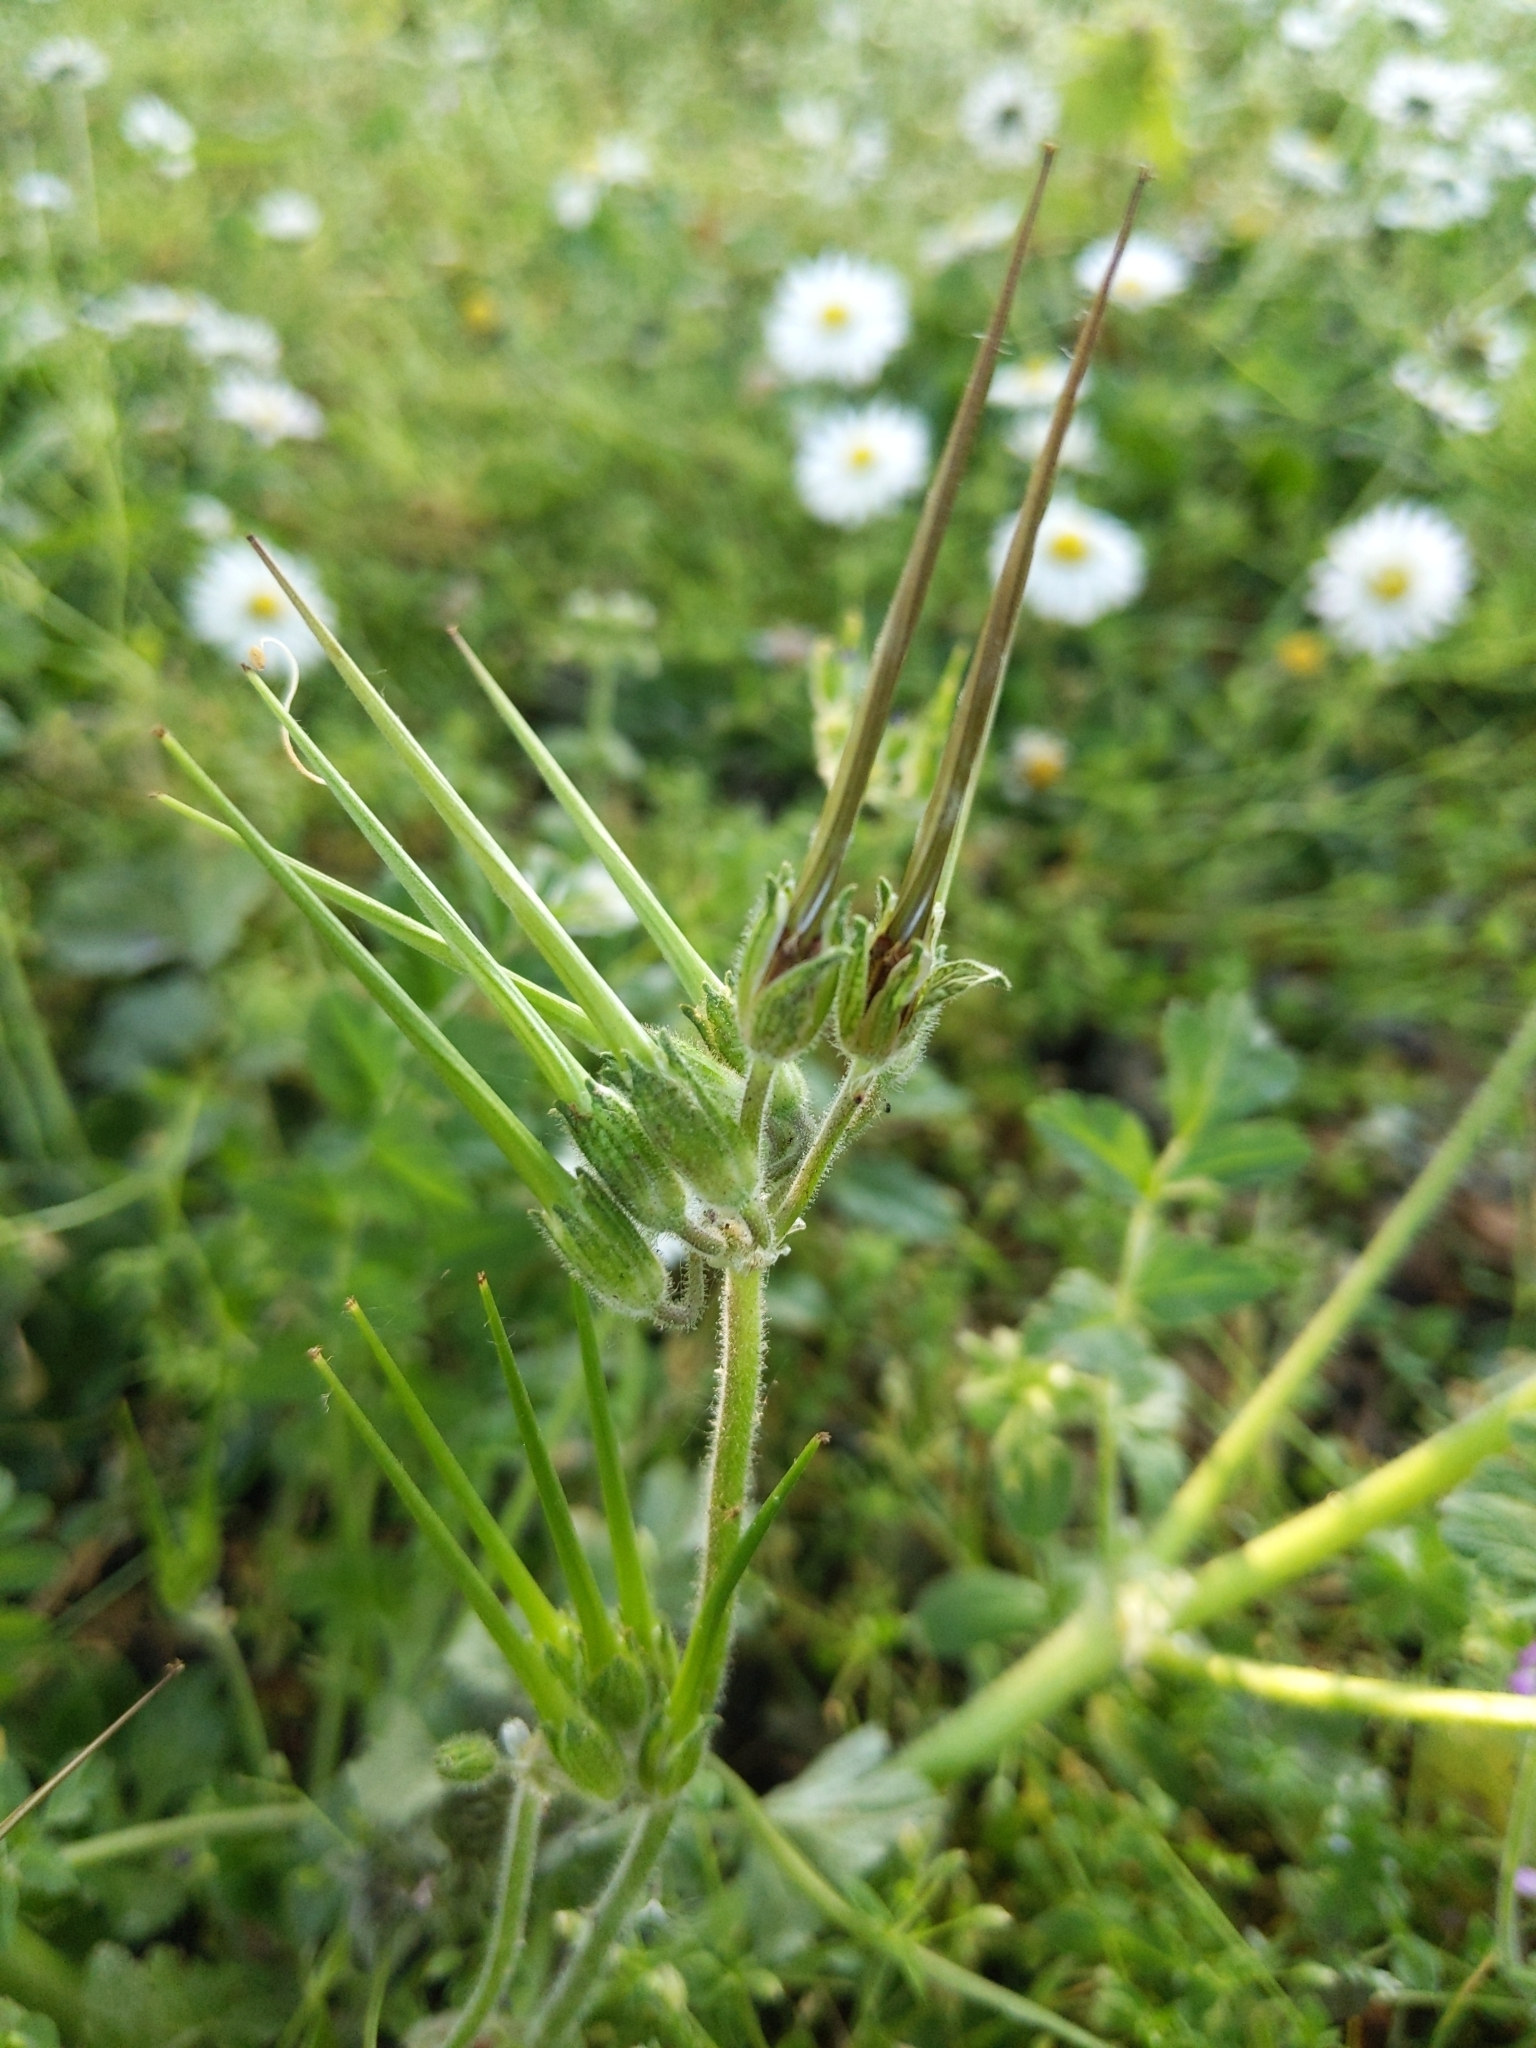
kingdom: Plantae
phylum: Tracheophyta
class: Magnoliopsida
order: Geraniales
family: Geraniaceae
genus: Erodium
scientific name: Erodium moschatum
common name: Musk stork's-bill
